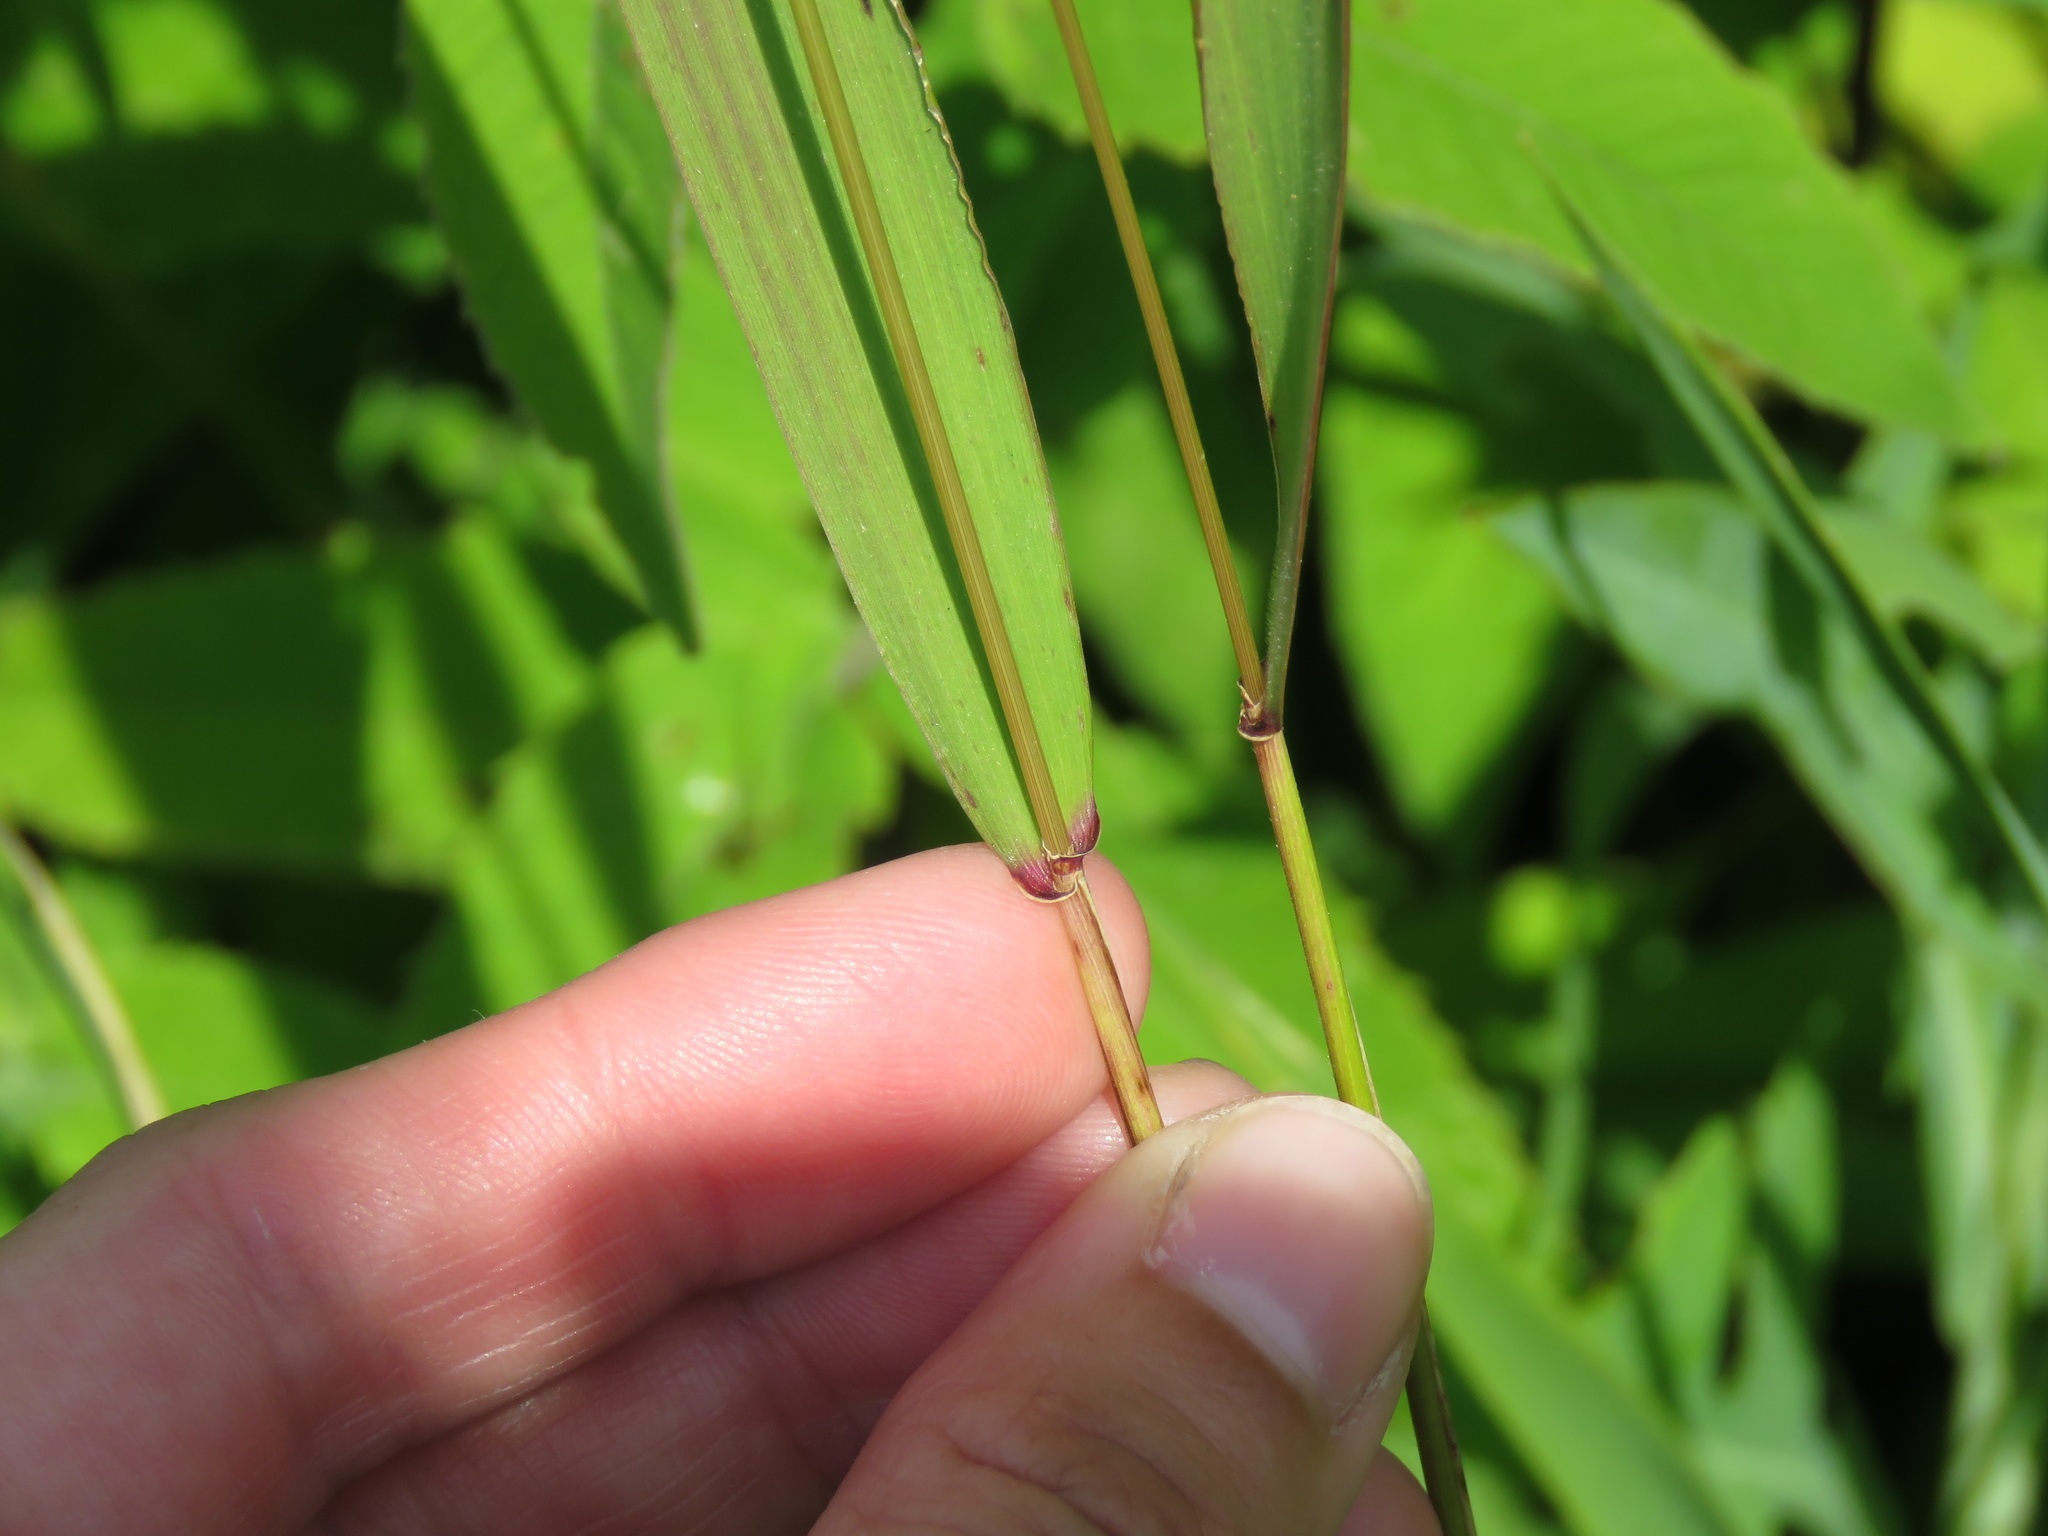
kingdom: Plantae
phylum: Tracheophyta
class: Liliopsida
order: Poales
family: Poaceae
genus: Elymus
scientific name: Elymus villosus
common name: Downy wild rye
